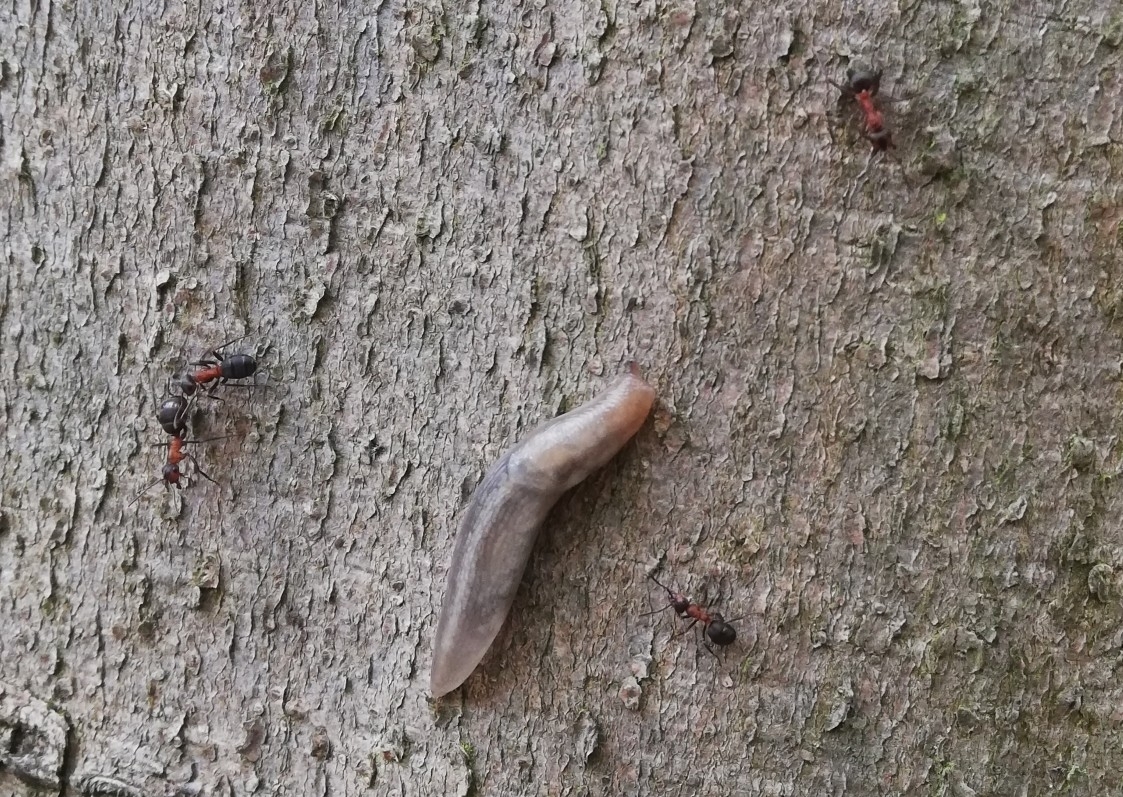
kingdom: Animalia
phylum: Mollusca
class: Gastropoda
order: Stylommatophora
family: Limacidae
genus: Lehmannia
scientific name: Lehmannia marginata
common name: Tree slug
